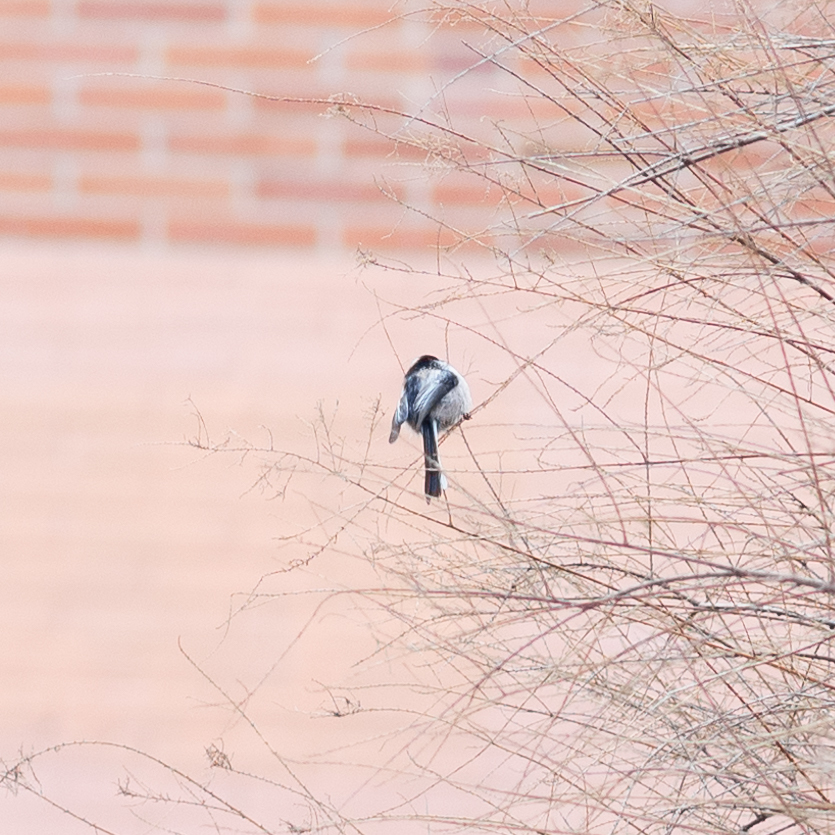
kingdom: Animalia
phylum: Chordata
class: Aves
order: Passeriformes
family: Aegithalidae
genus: Aegithalos
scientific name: Aegithalos caudatus
